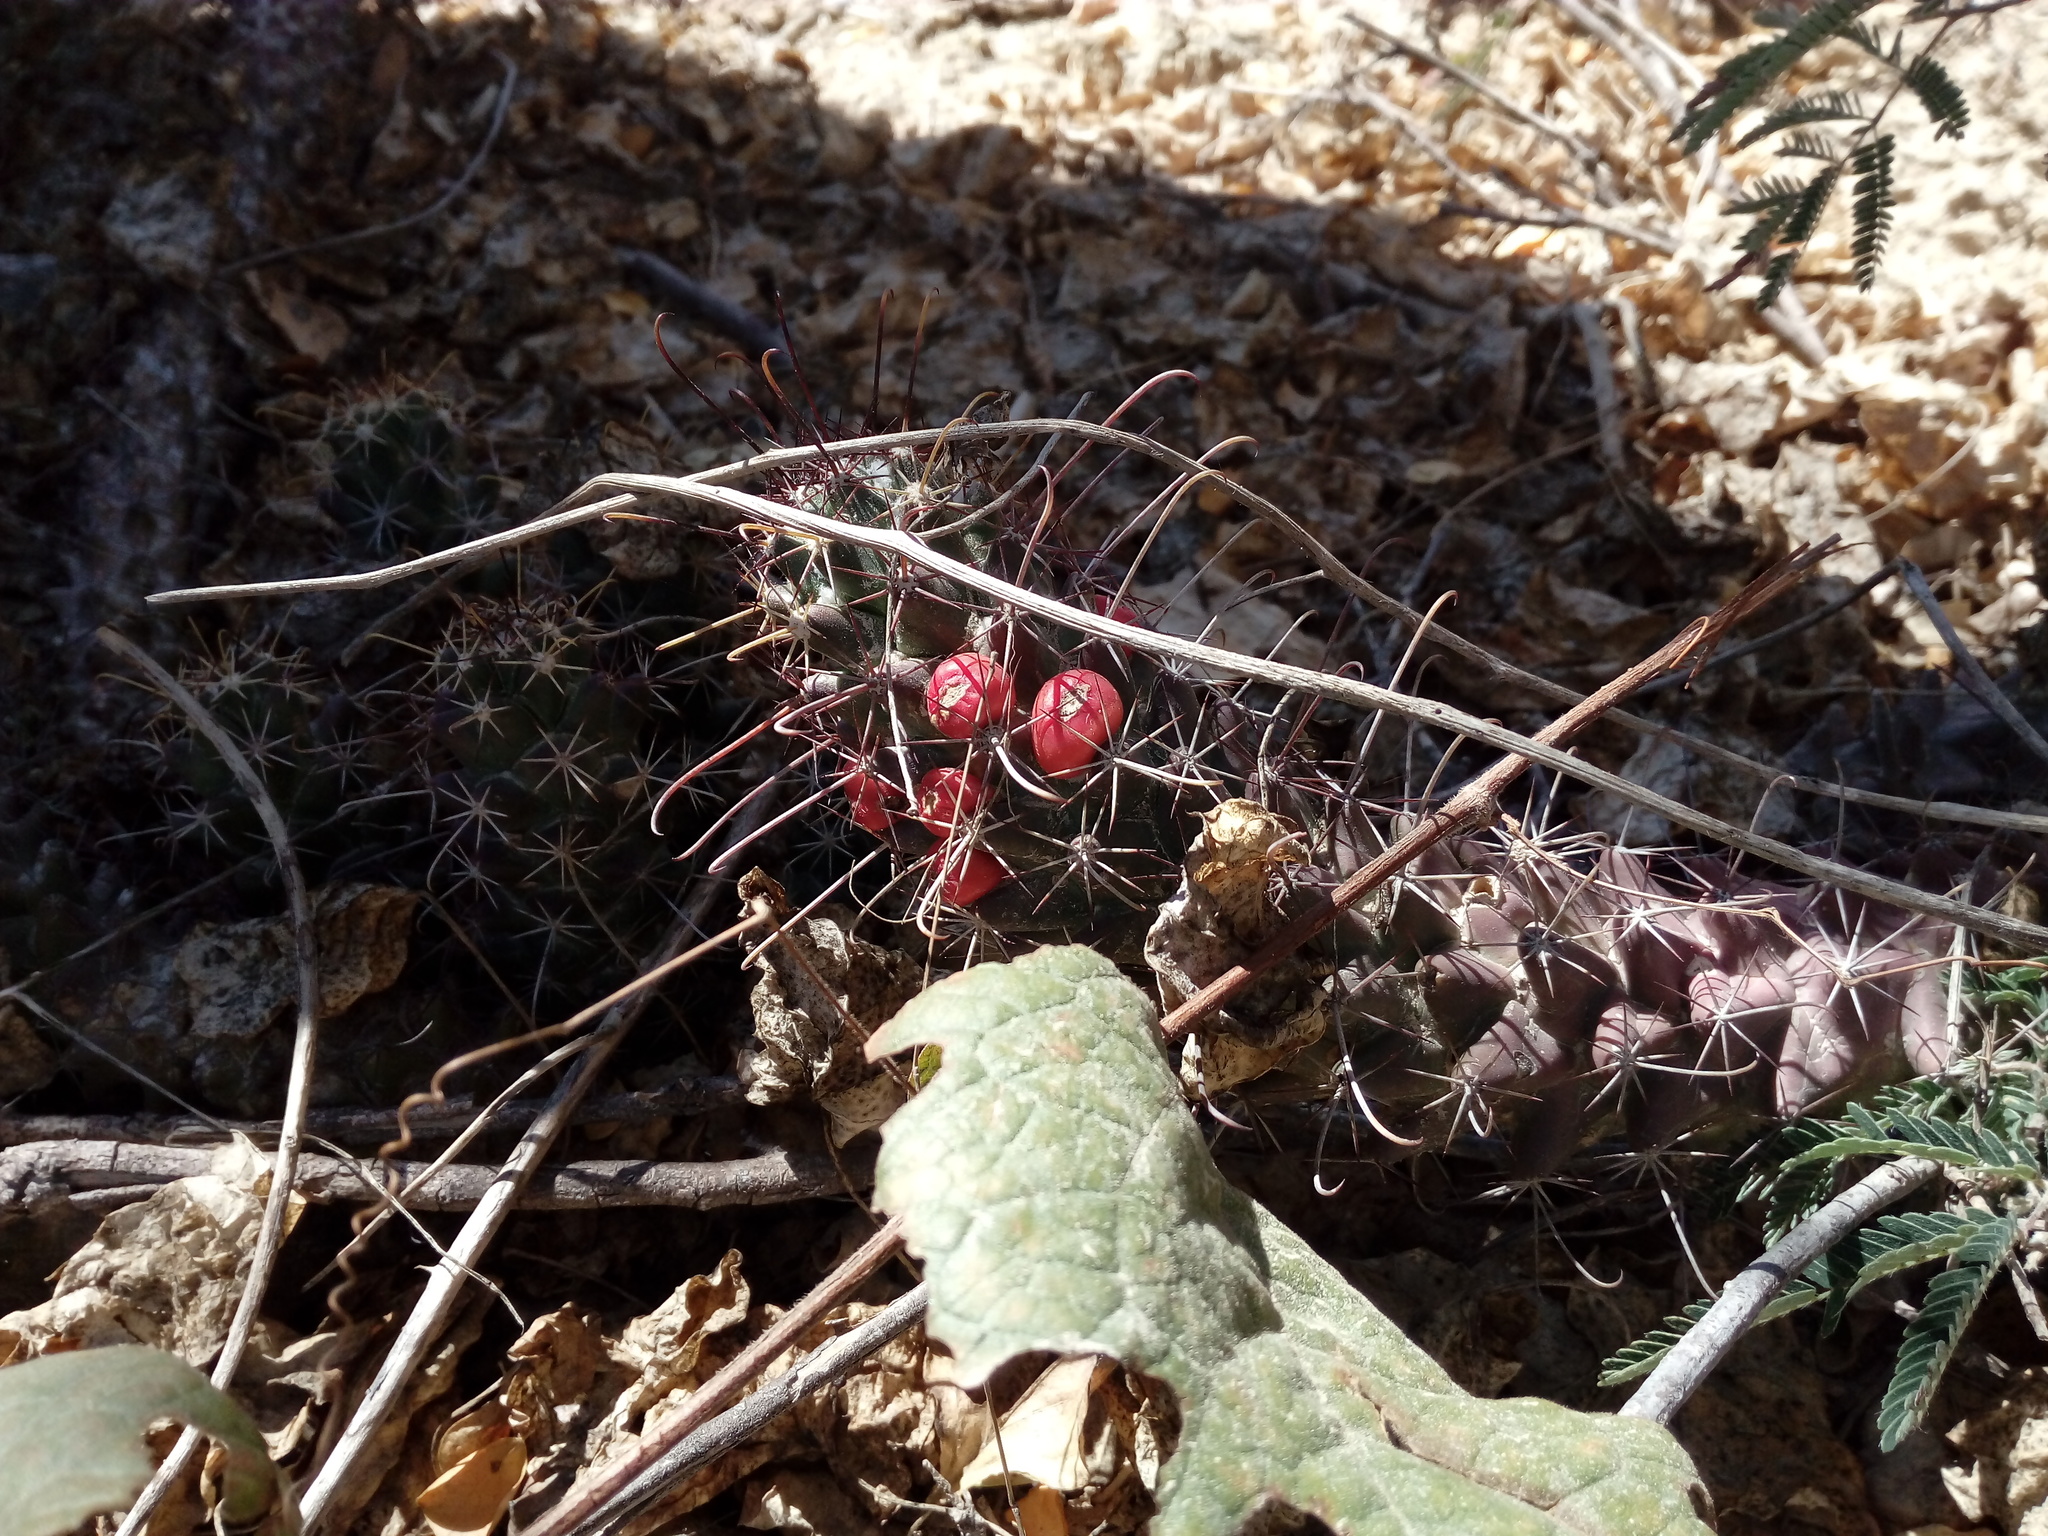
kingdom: Plantae
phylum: Tracheophyta
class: Magnoliopsida
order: Caryophyllales
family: Cactaceae
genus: Cochemiea
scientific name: Cochemiea poselgeri
